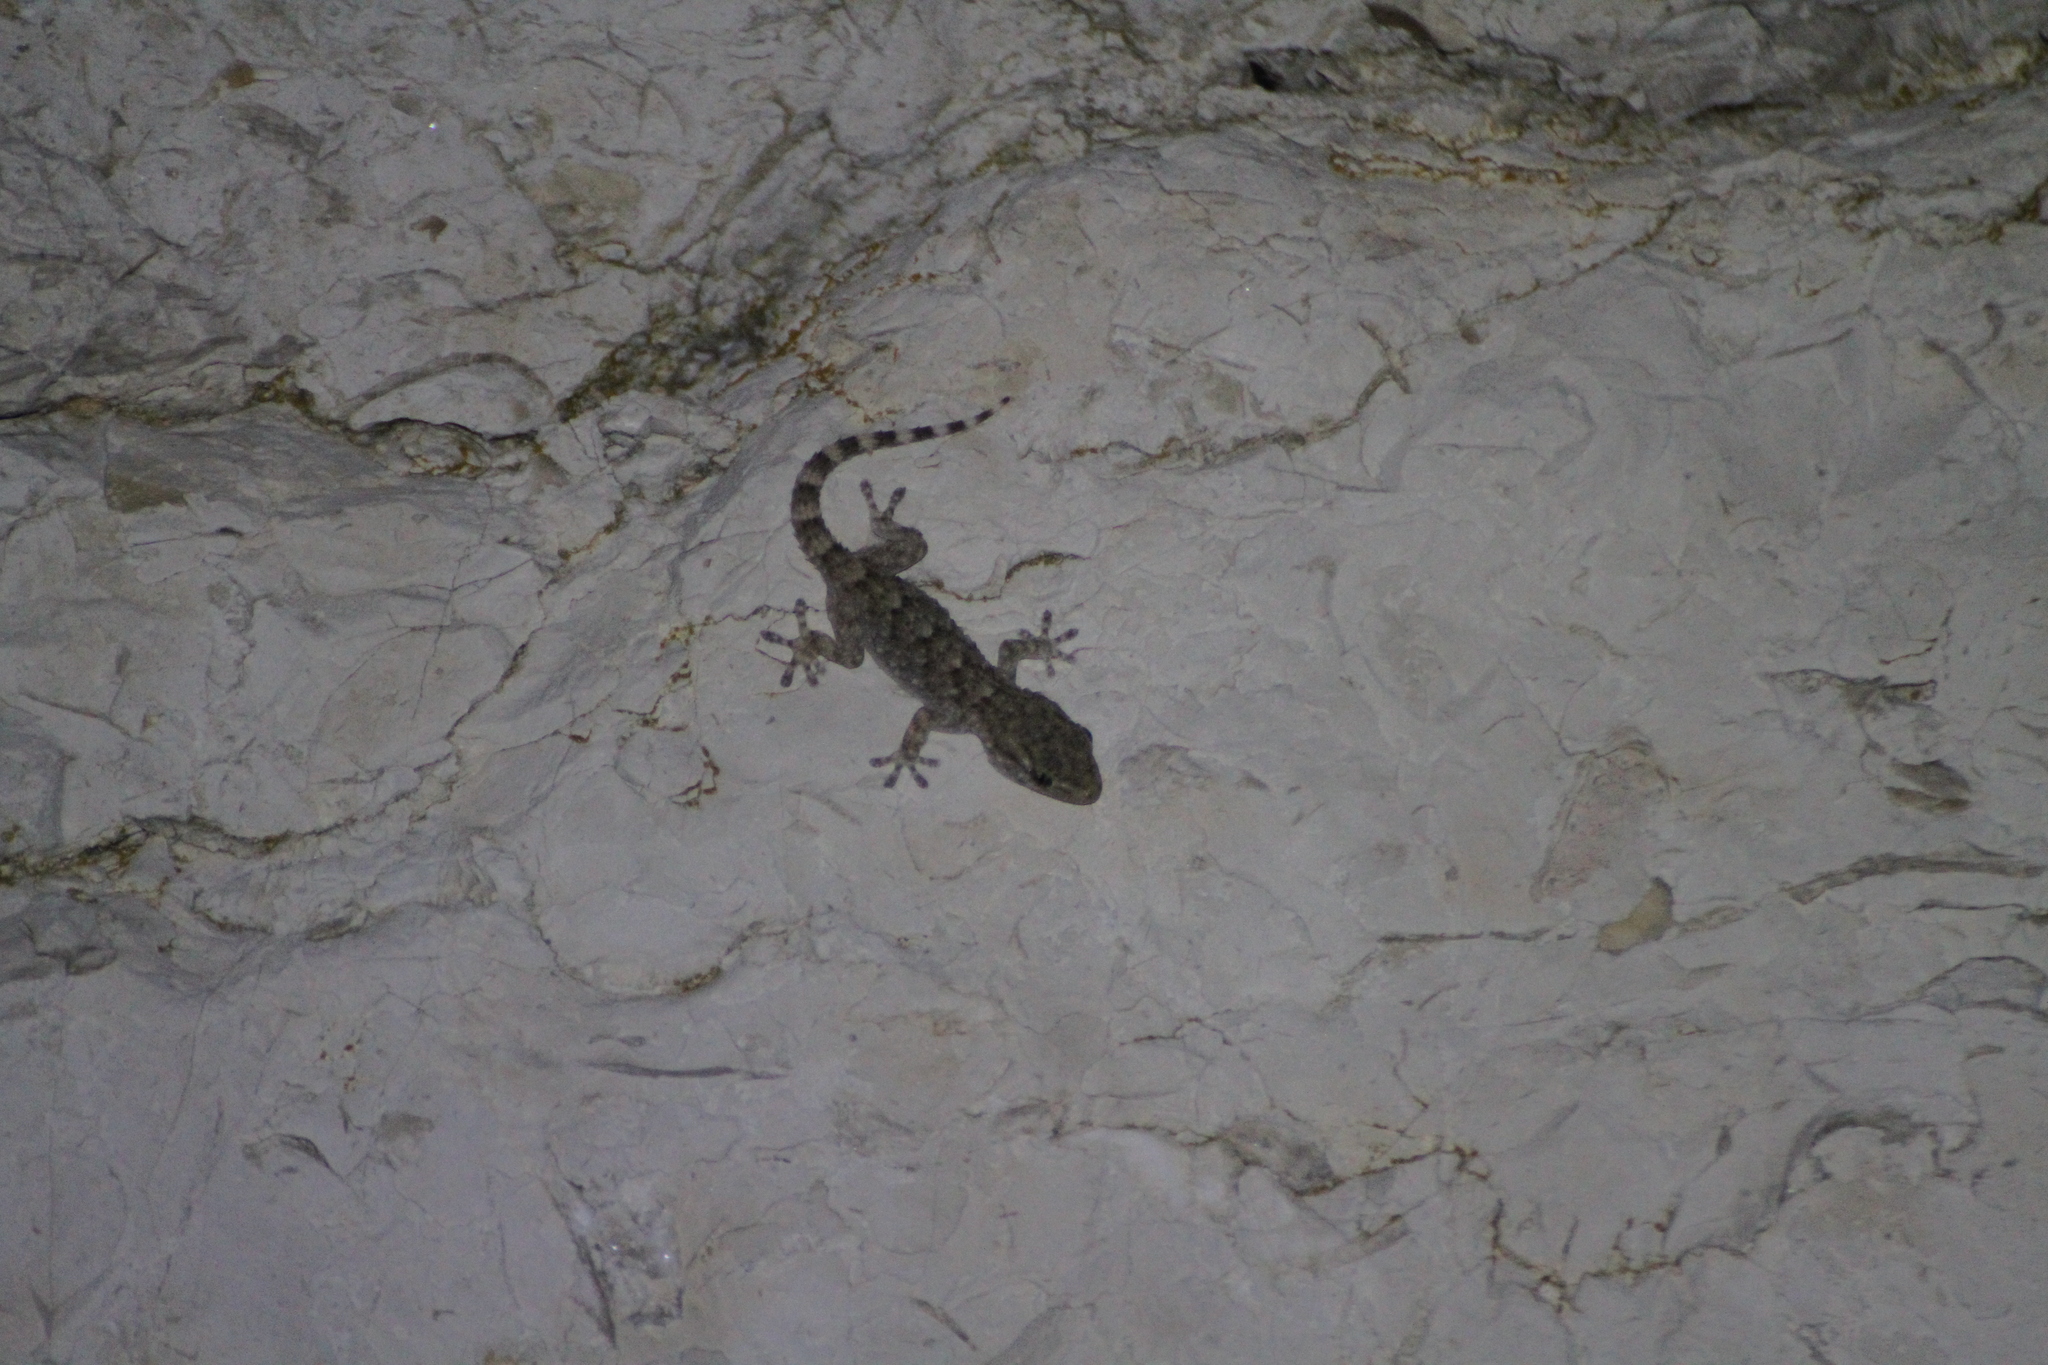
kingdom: Animalia
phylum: Chordata
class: Squamata
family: Phyllodactylidae
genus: Tarentola
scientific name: Tarentola mauritanica
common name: Moorish gecko
